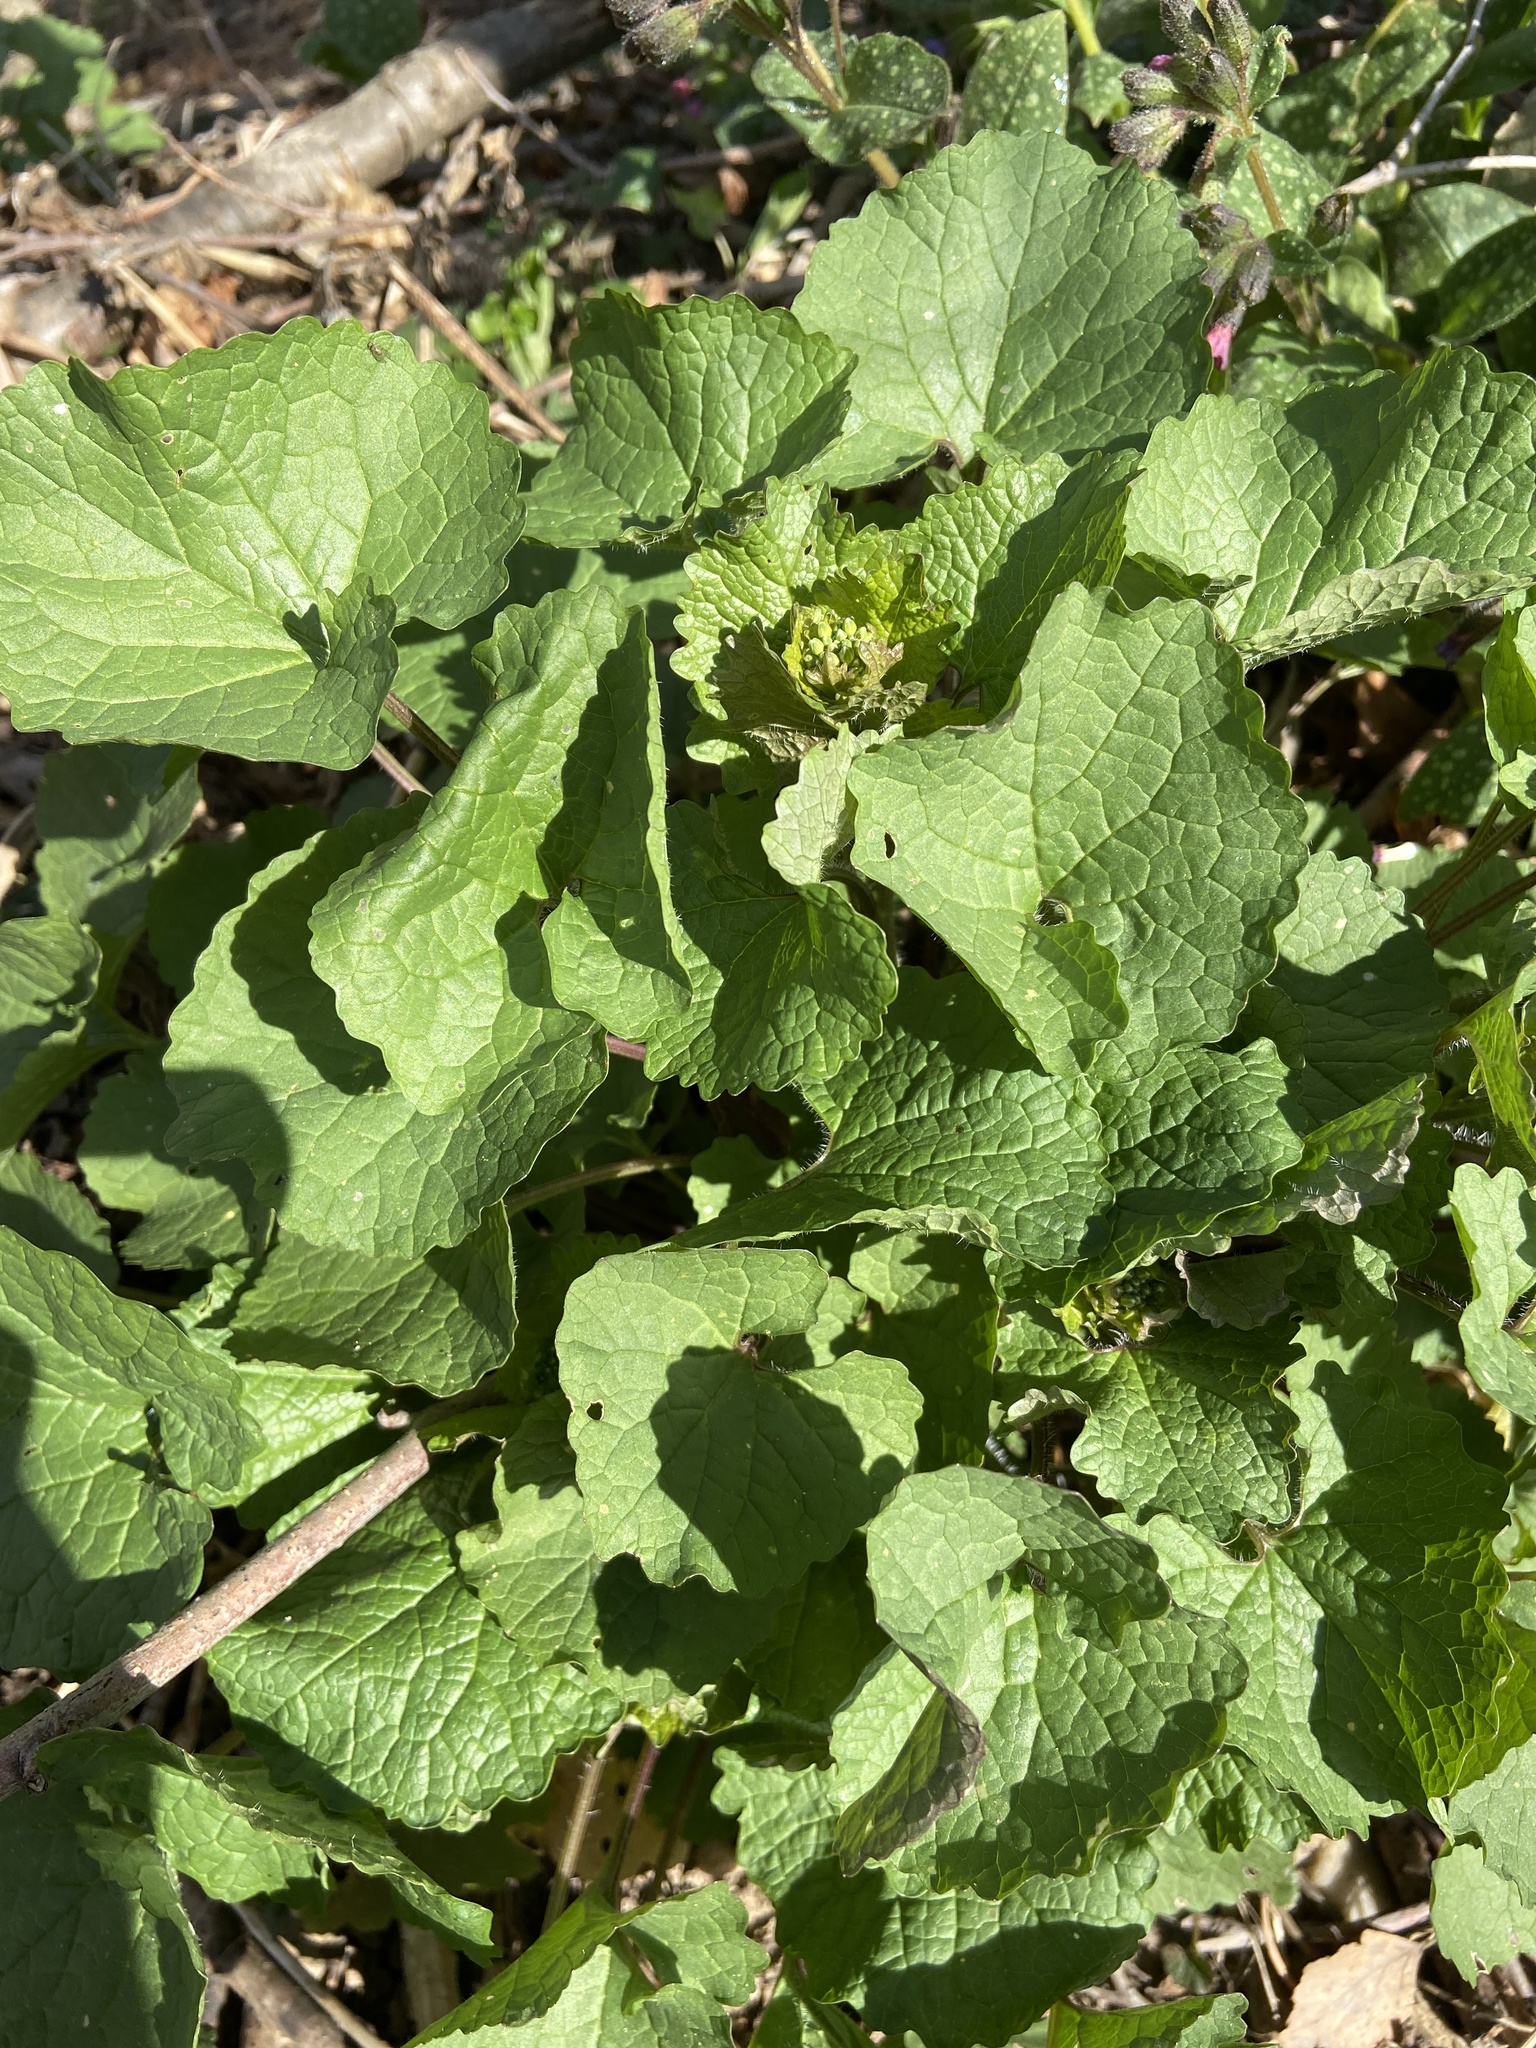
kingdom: Plantae
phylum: Tracheophyta
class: Magnoliopsida
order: Brassicales
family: Brassicaceae
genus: Alliaria
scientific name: Alliaria petiolata
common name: Garlic mustard
